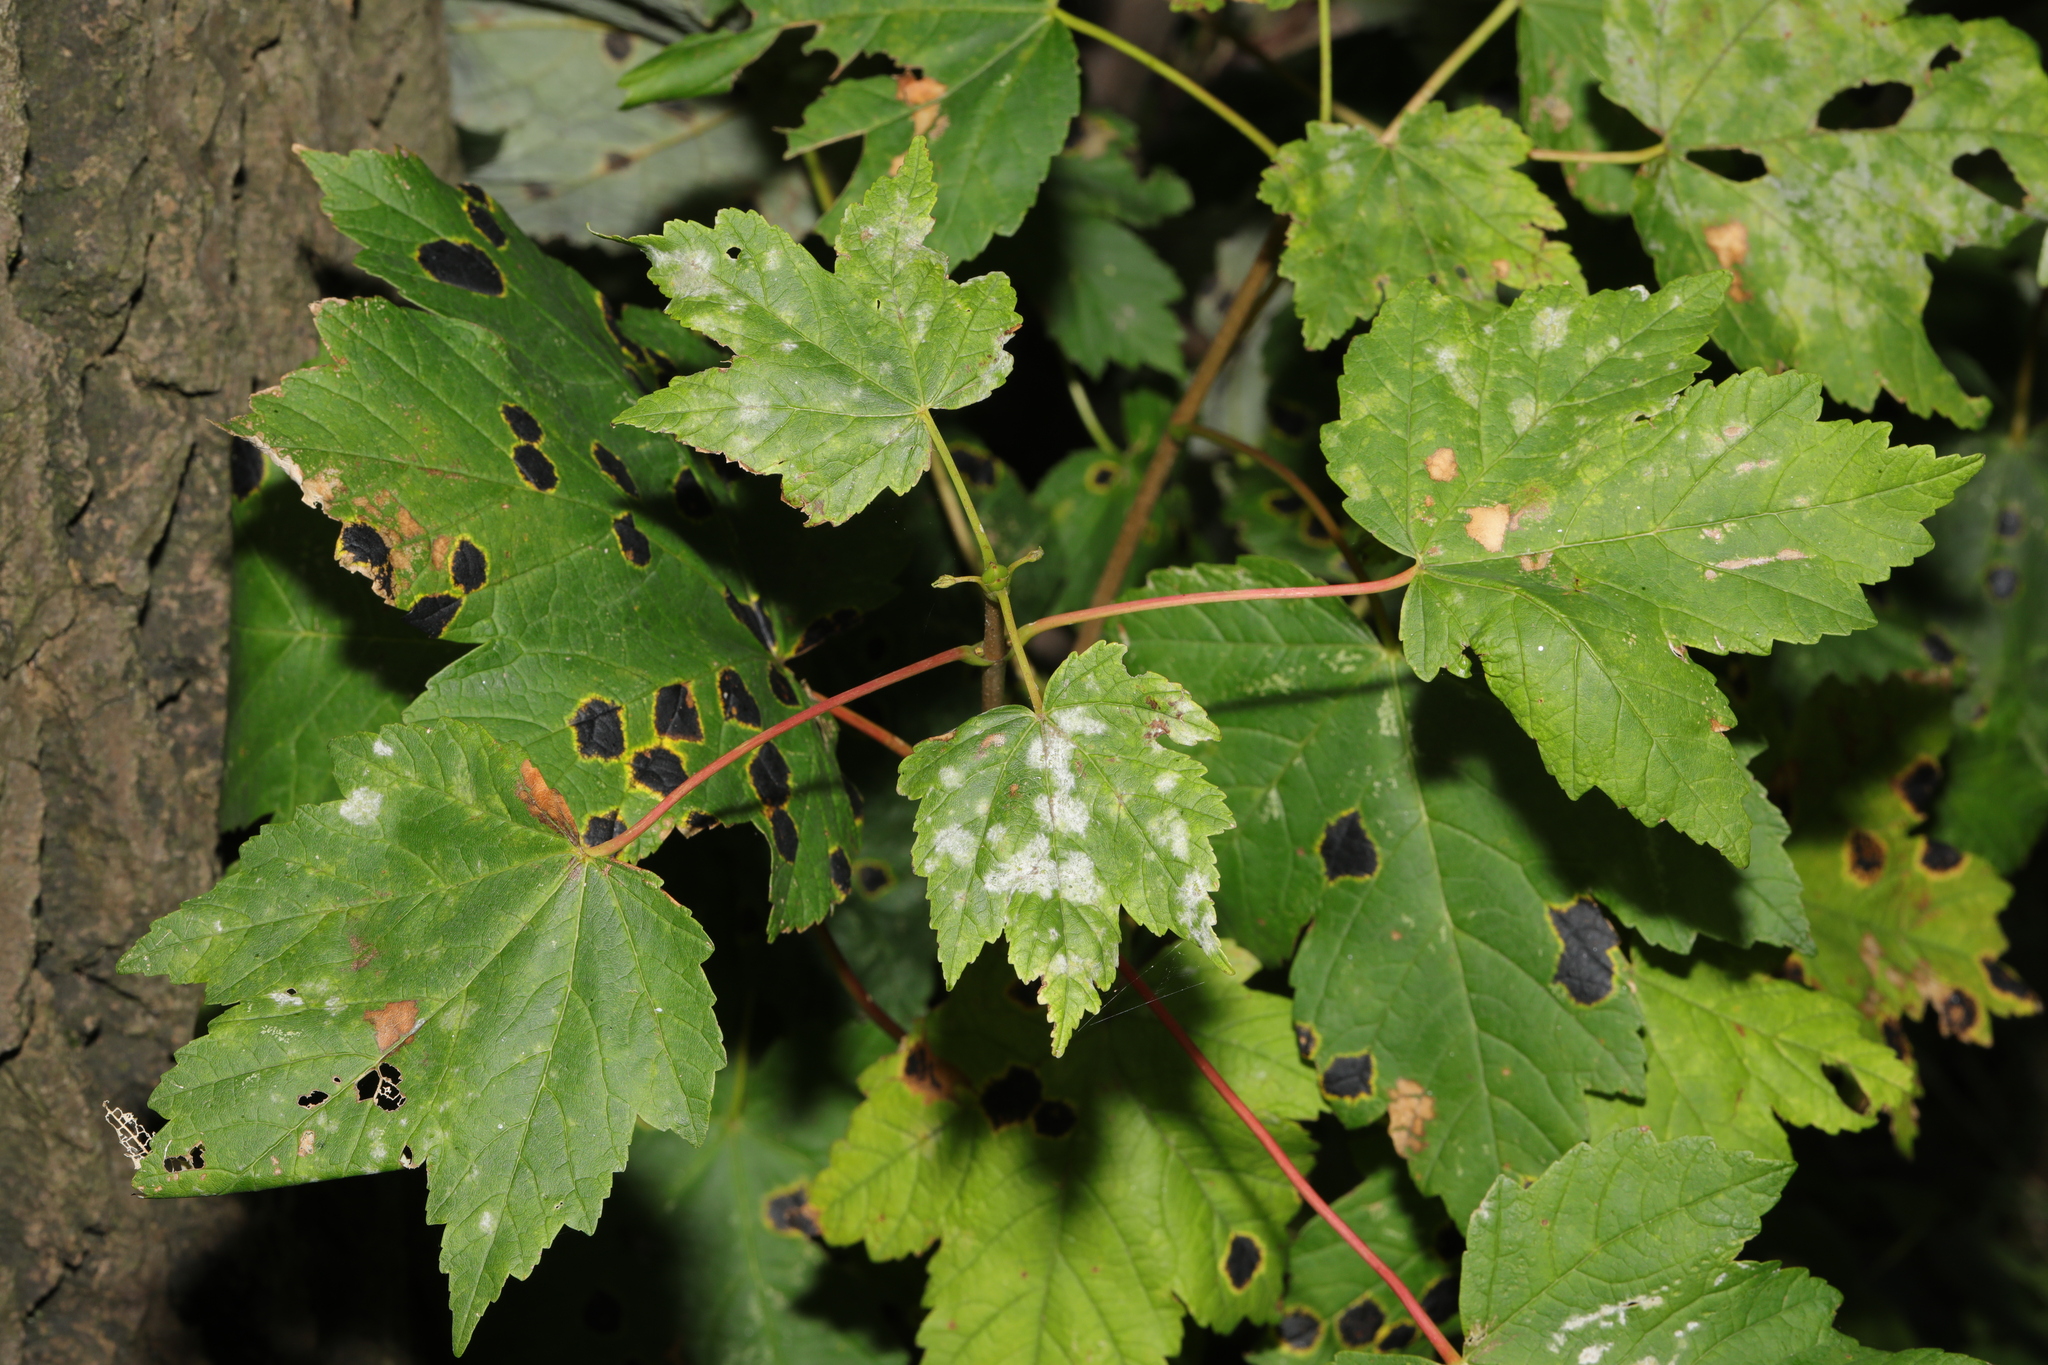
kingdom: Fungi
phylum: Ascomycota
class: Leotiomycetes
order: Rhytismatales
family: Rhytismataceae
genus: Rhytisma
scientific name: Rhytisma acerinum
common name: European tar spot
